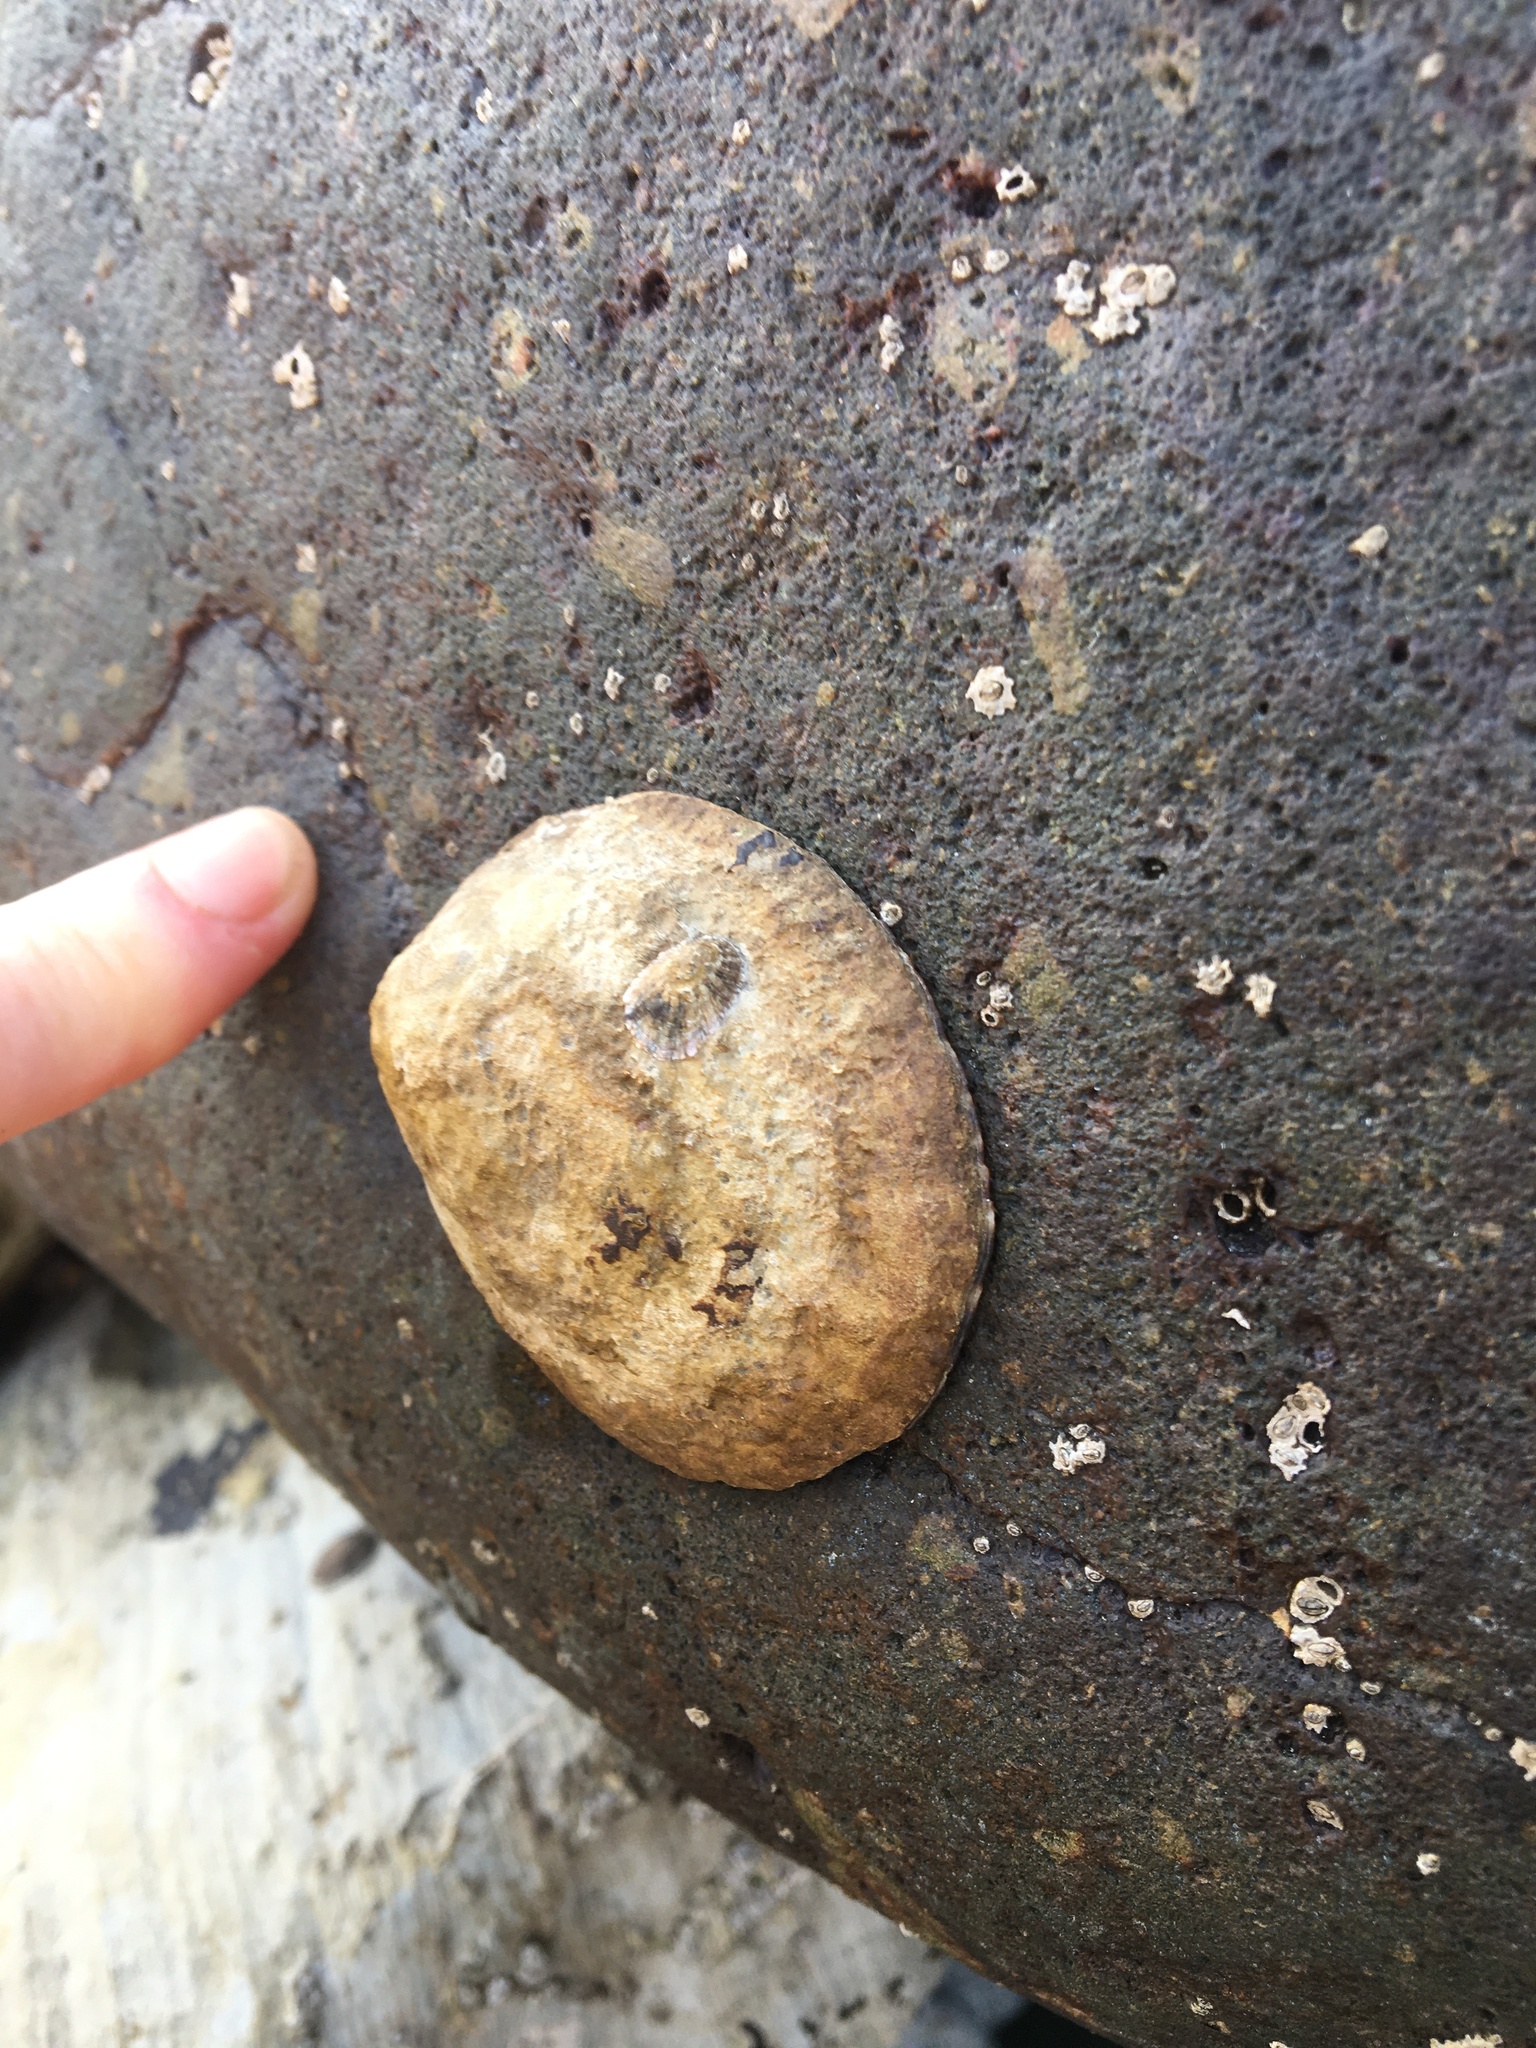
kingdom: Animalia
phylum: Mollusca
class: Gastropoda
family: Lottiidae
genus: Lottia
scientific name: Lottia gigantea
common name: Owl limpet
